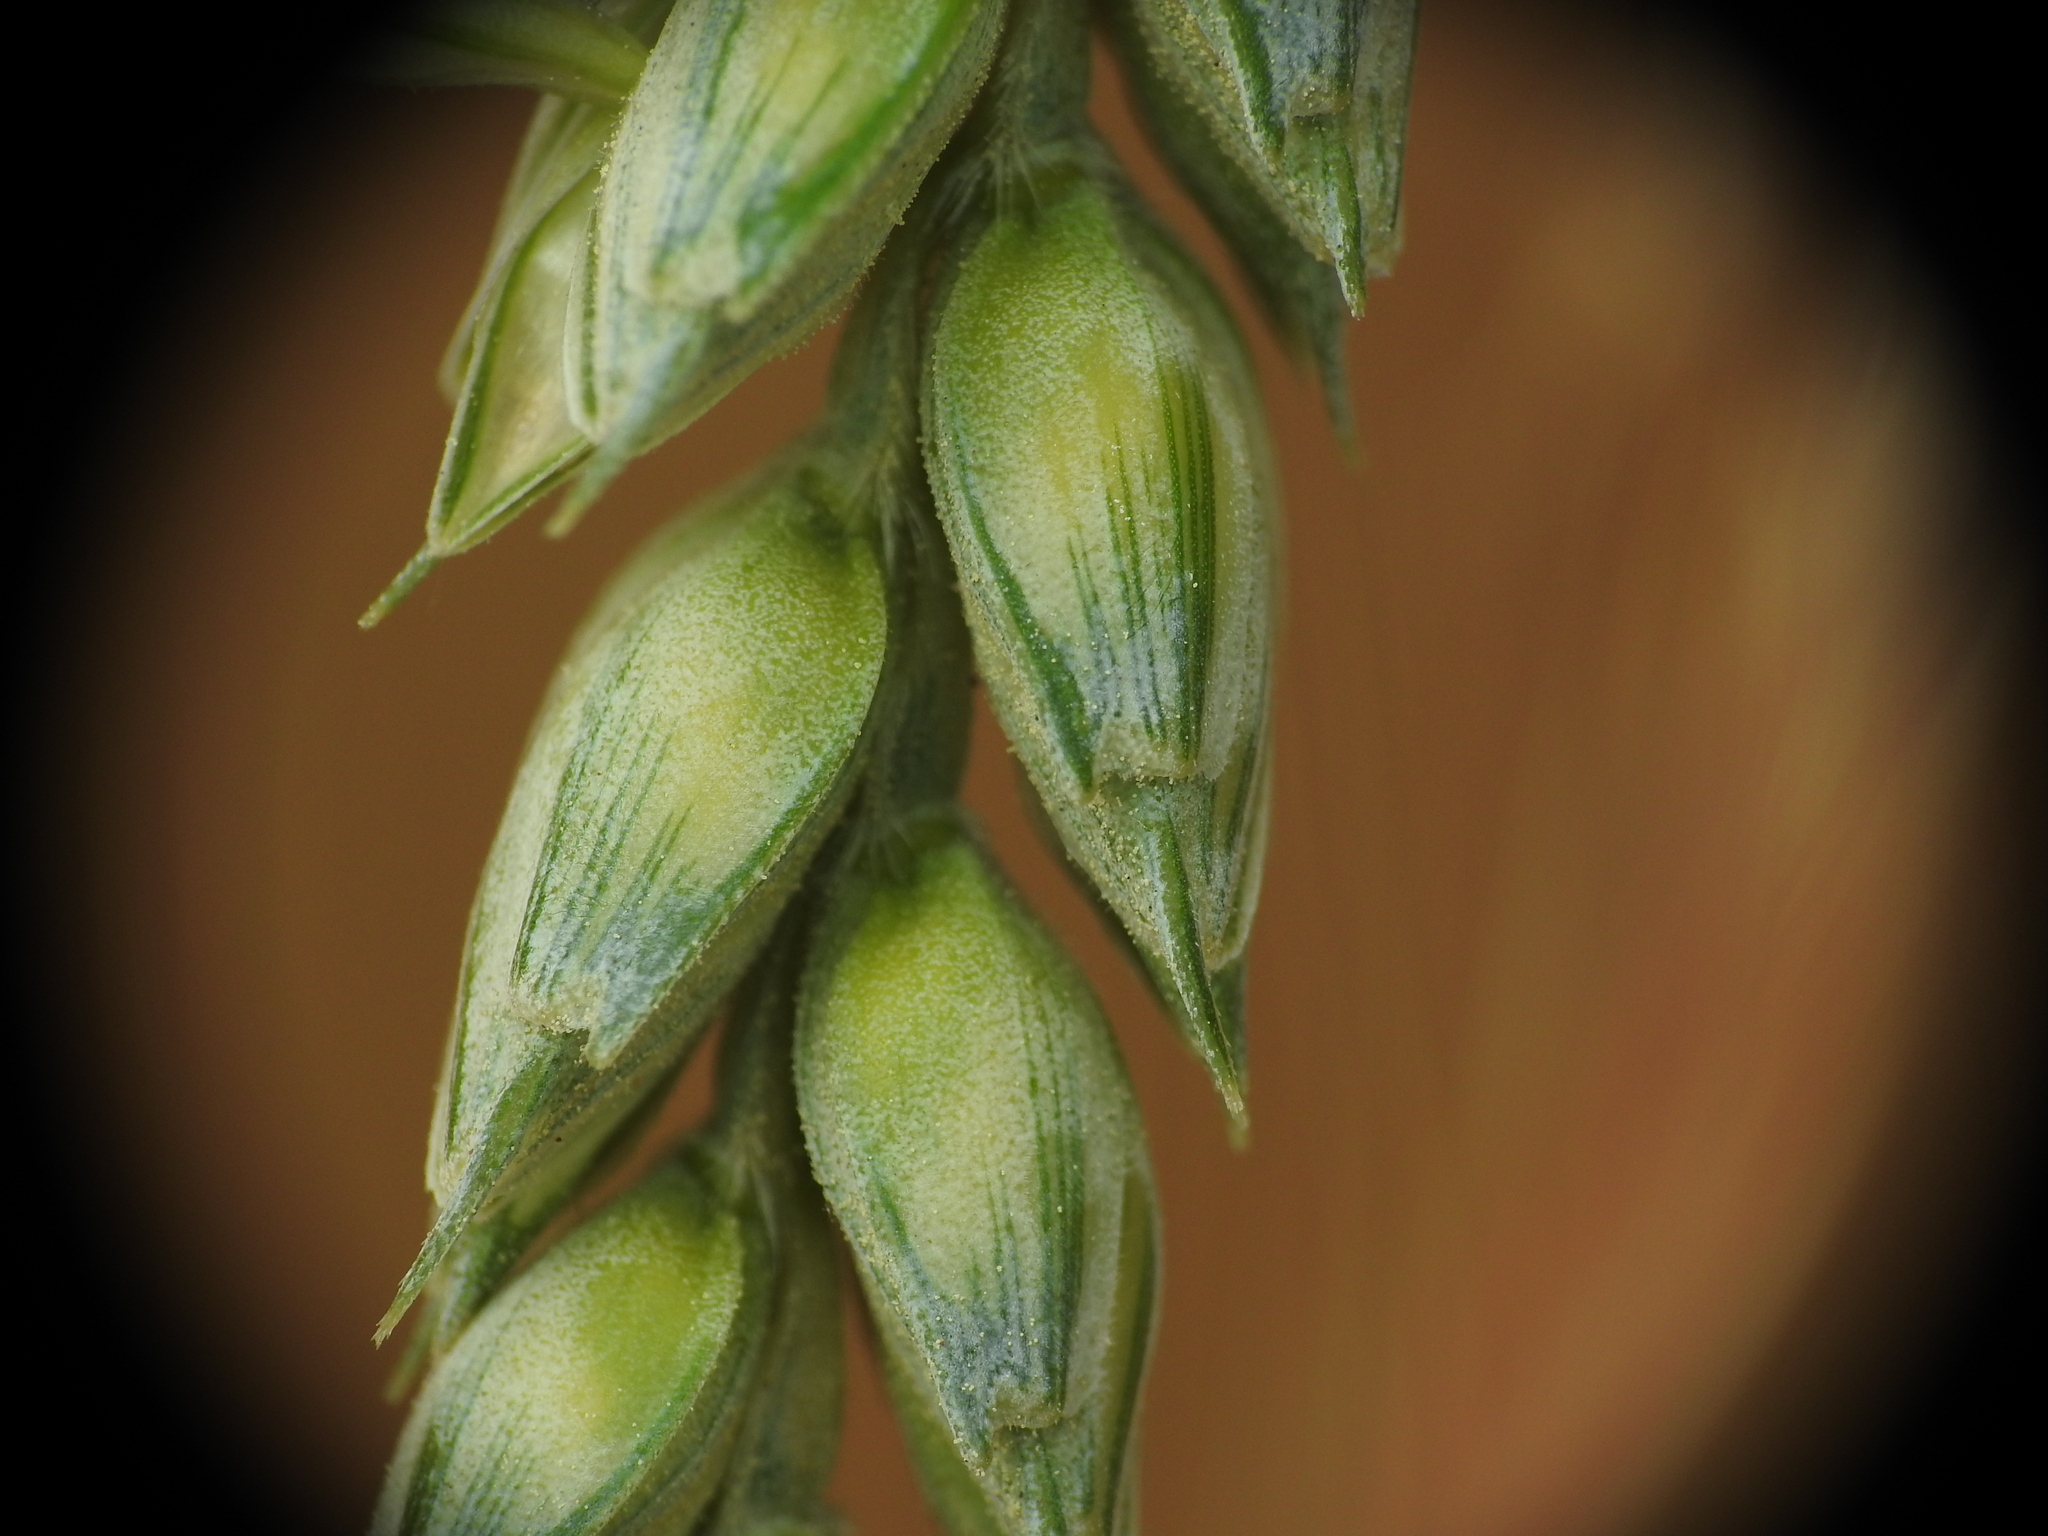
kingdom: Plantae
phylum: Tracheophyta
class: Liliopsida
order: Poales
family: Poaceae
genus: Triticum
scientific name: Triticum aestivum
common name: Common wheat
